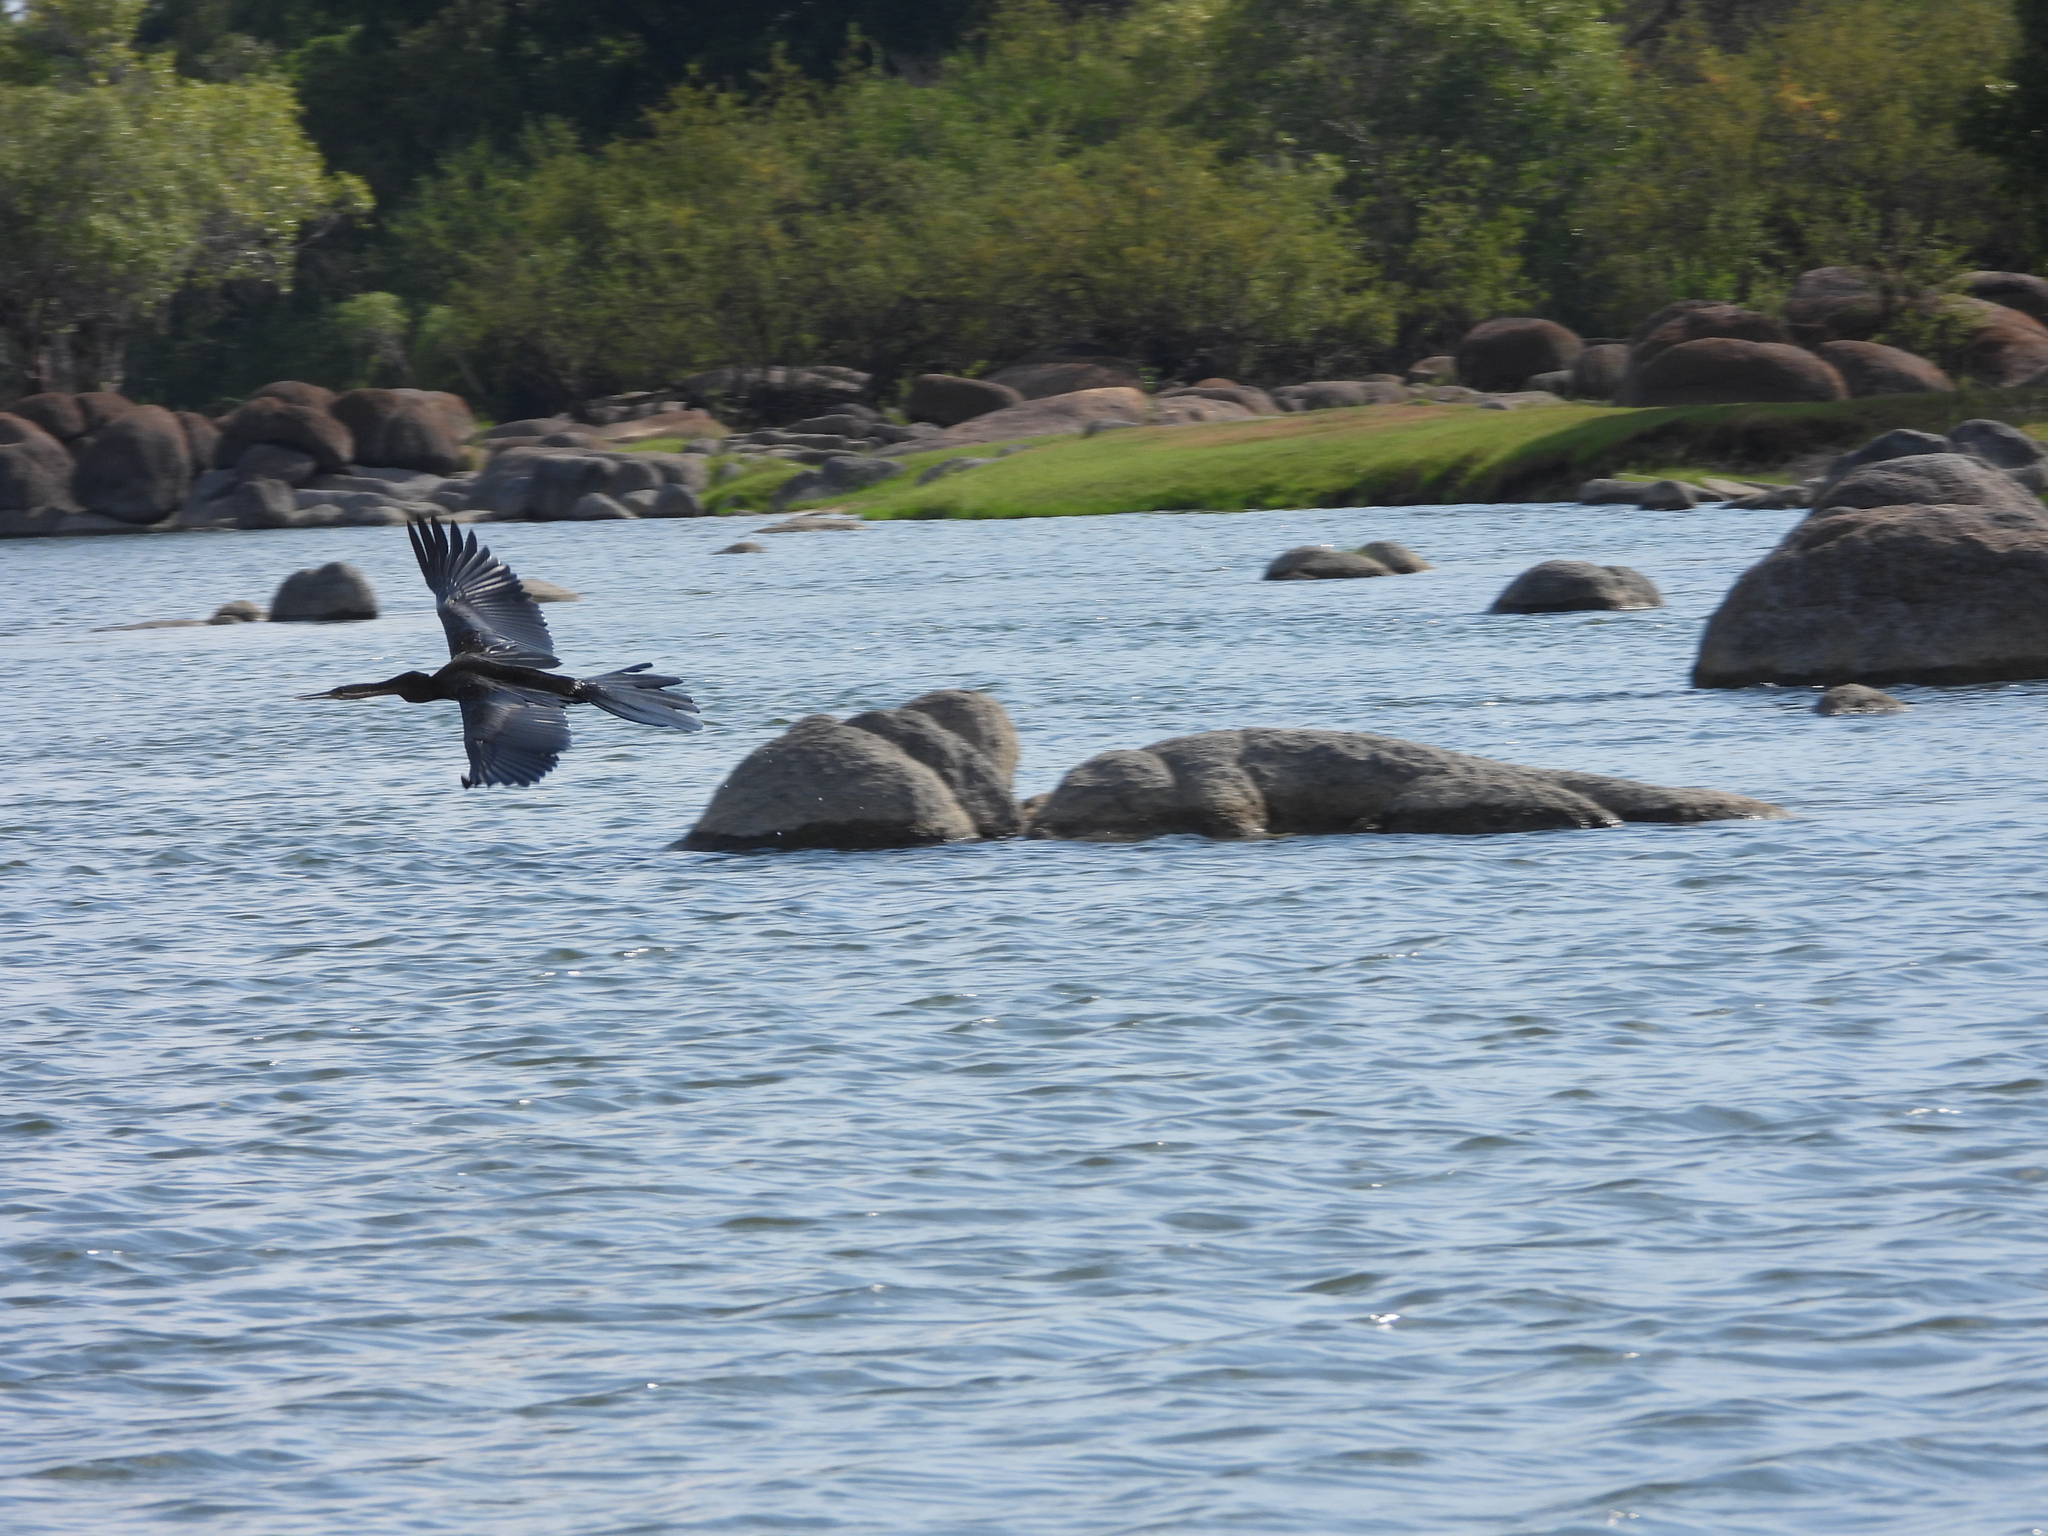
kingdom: Animalia
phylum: Chordata
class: Aves
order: Suliformes
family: Anhingidae
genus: Anhinga
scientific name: Anhinga rufa
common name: African darter
